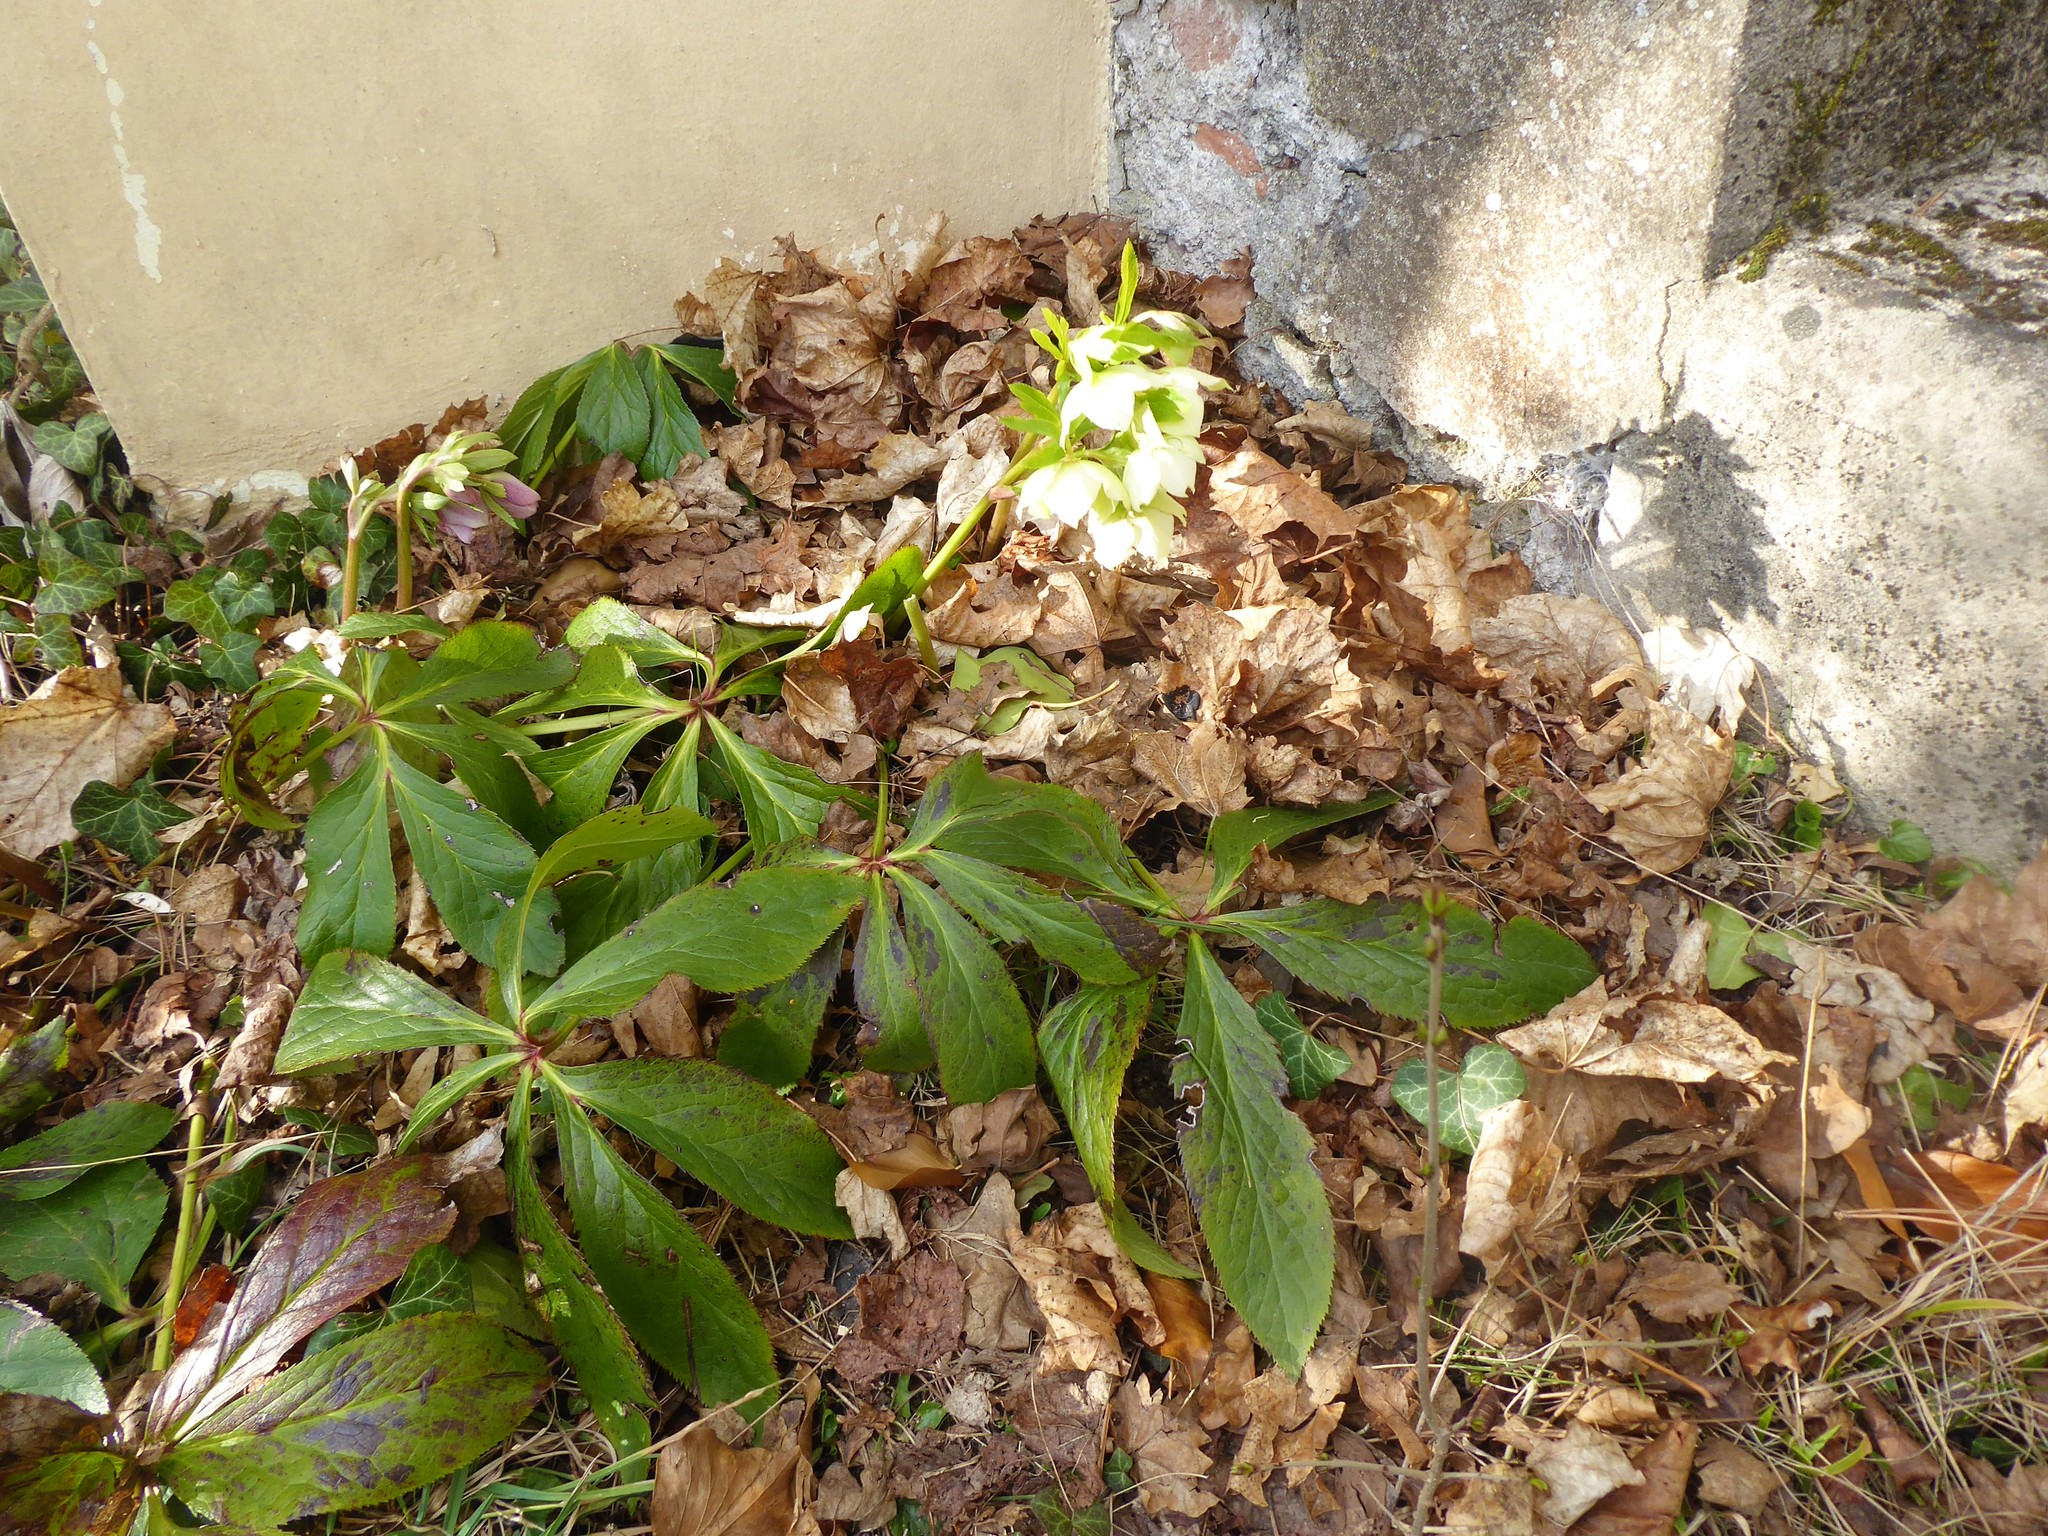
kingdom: Plantae
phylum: Tracheophyta
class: Magnoliopsida
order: Ranunculales
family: Ranunculaceae
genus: Helleborus
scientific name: Helleborus hybridus
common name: Hybrid lenten-rose
